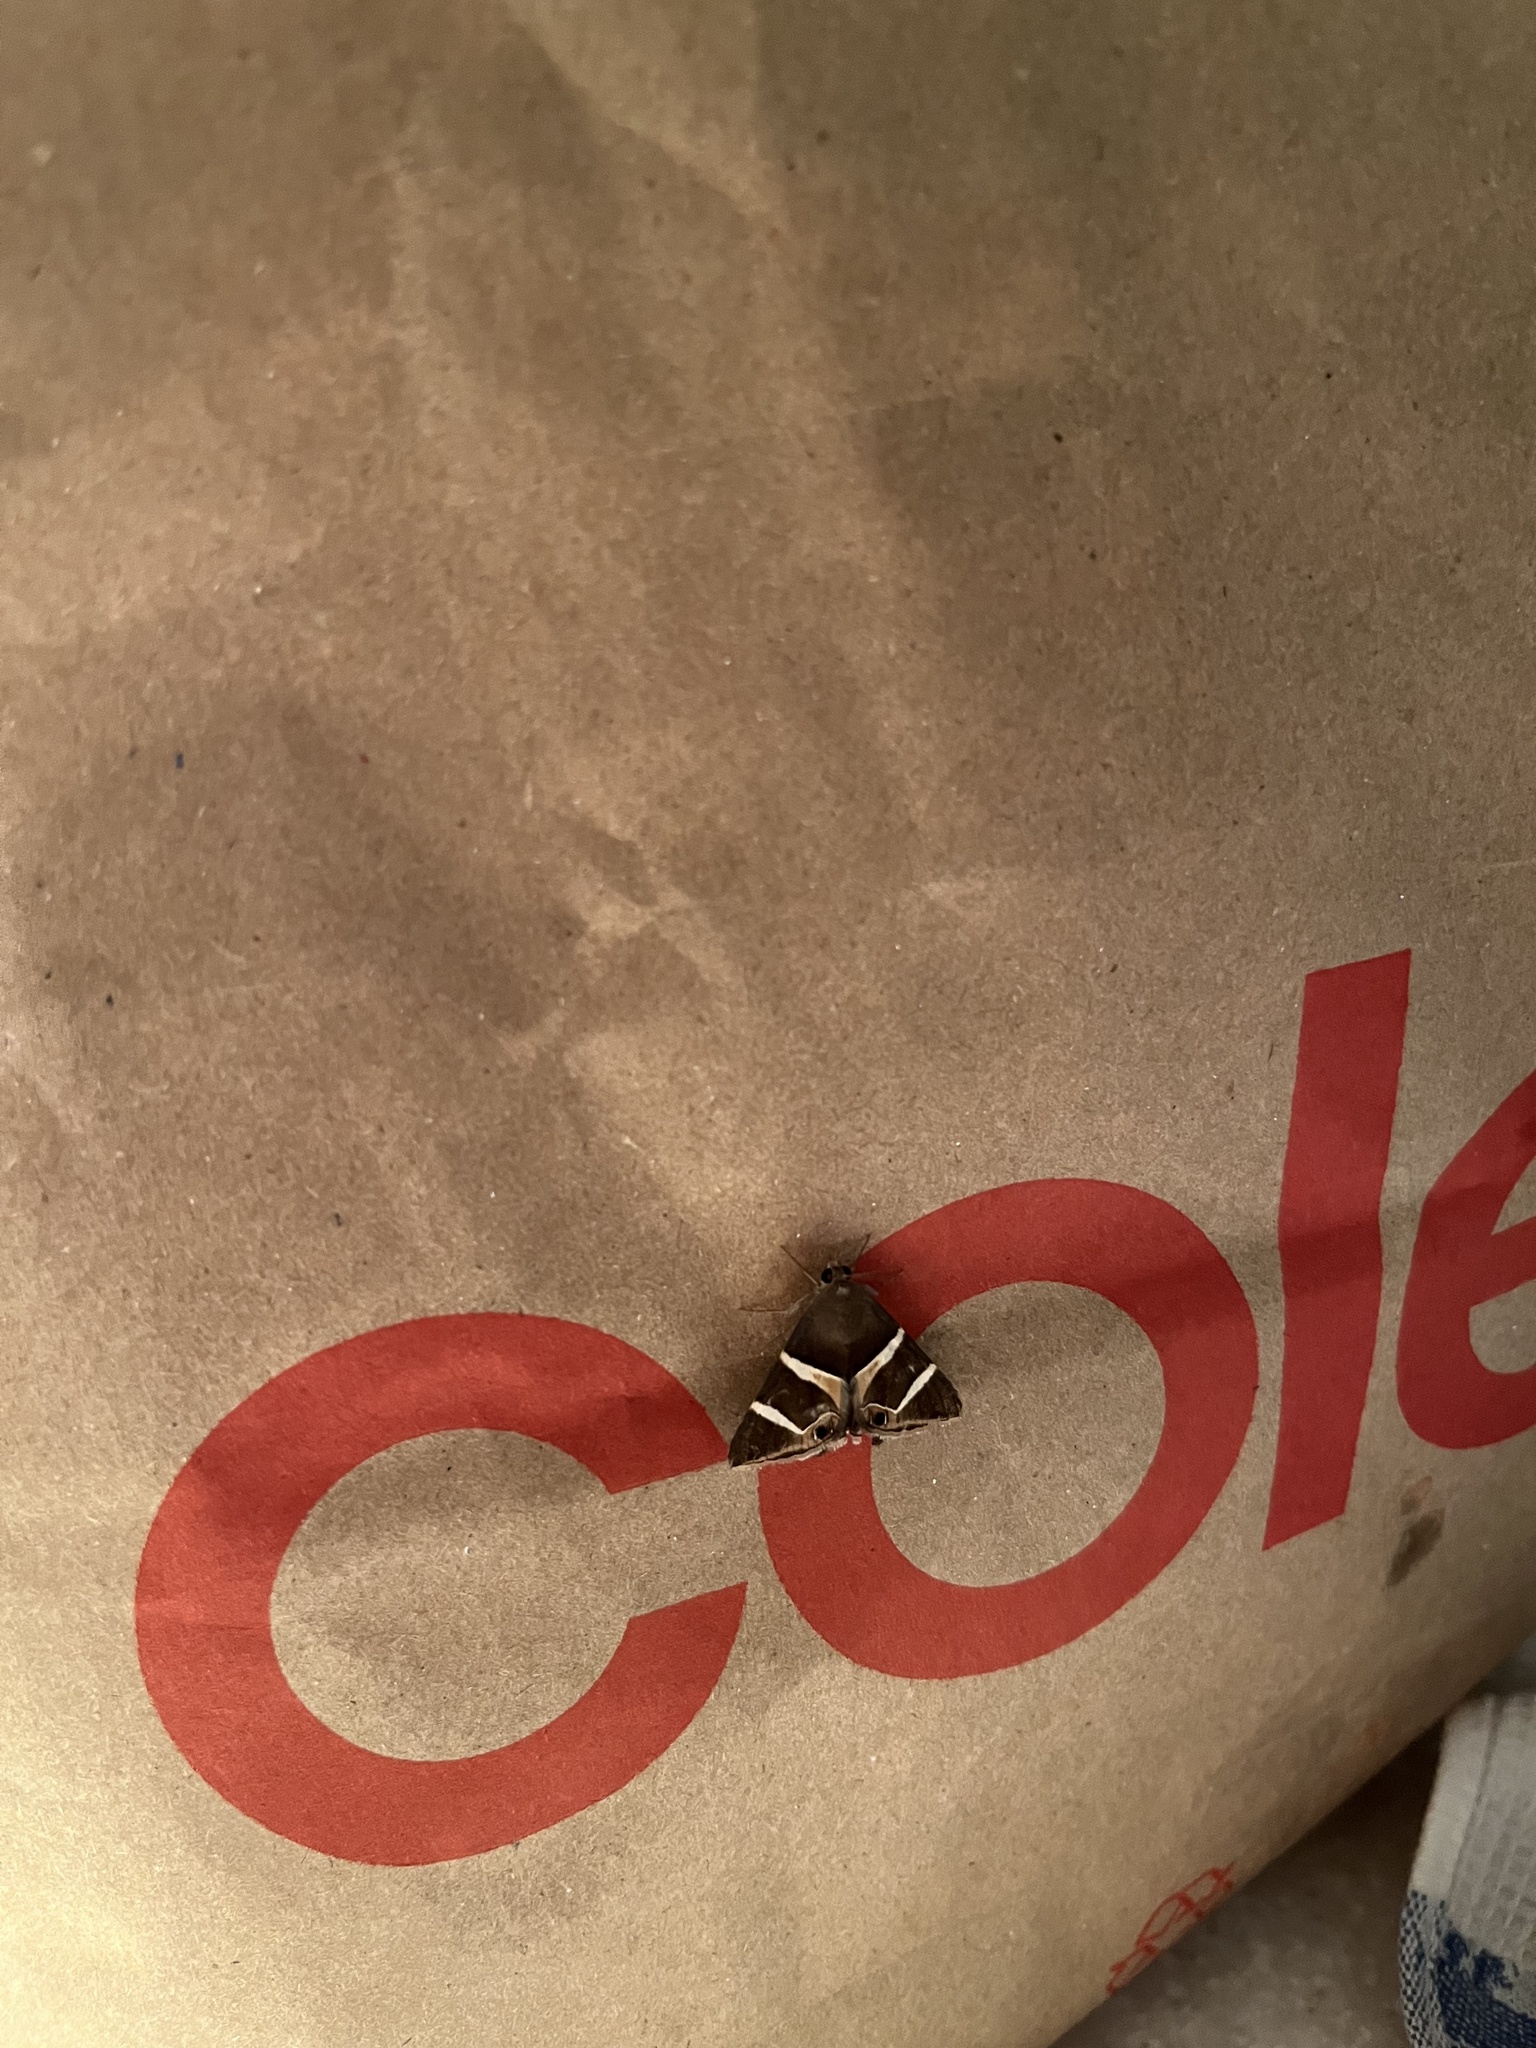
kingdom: Animalia
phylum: Arthropoda
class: Insecta
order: Lepidoptera
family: Erebidae
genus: Grammodes
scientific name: Grammodes oculicola
